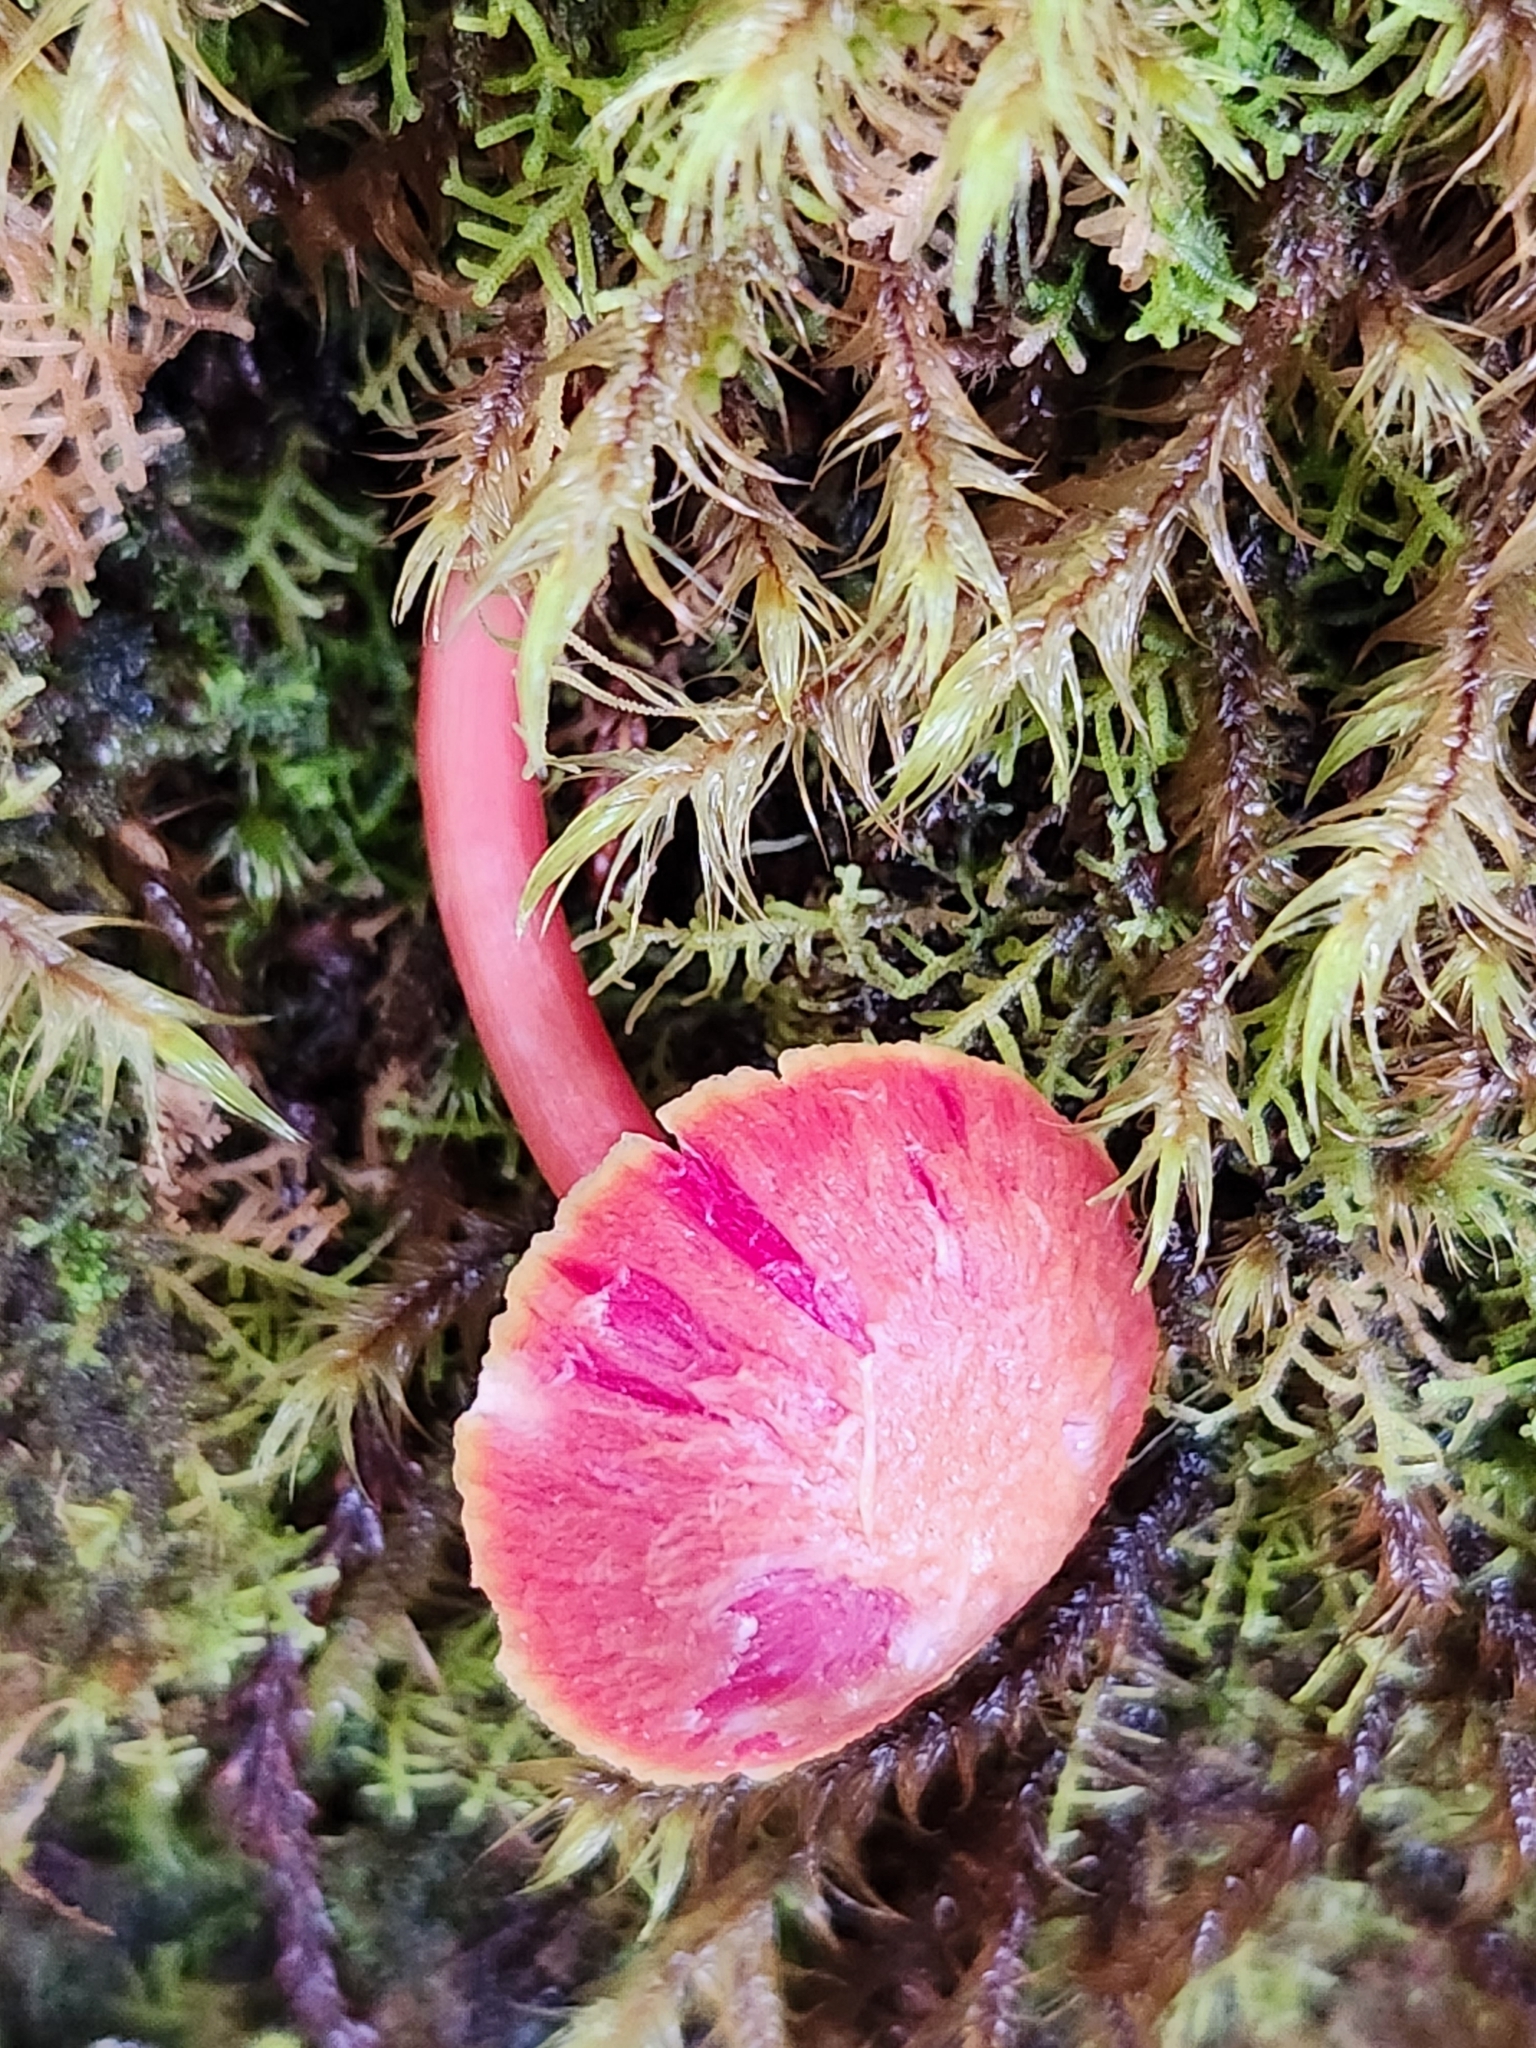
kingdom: Fungi
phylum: Basidiomycota
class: Agaricomycetes
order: Agaricales
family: Hygrophoraceae
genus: Hygrocybe
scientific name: Hygrocybe rubrocarnosa
